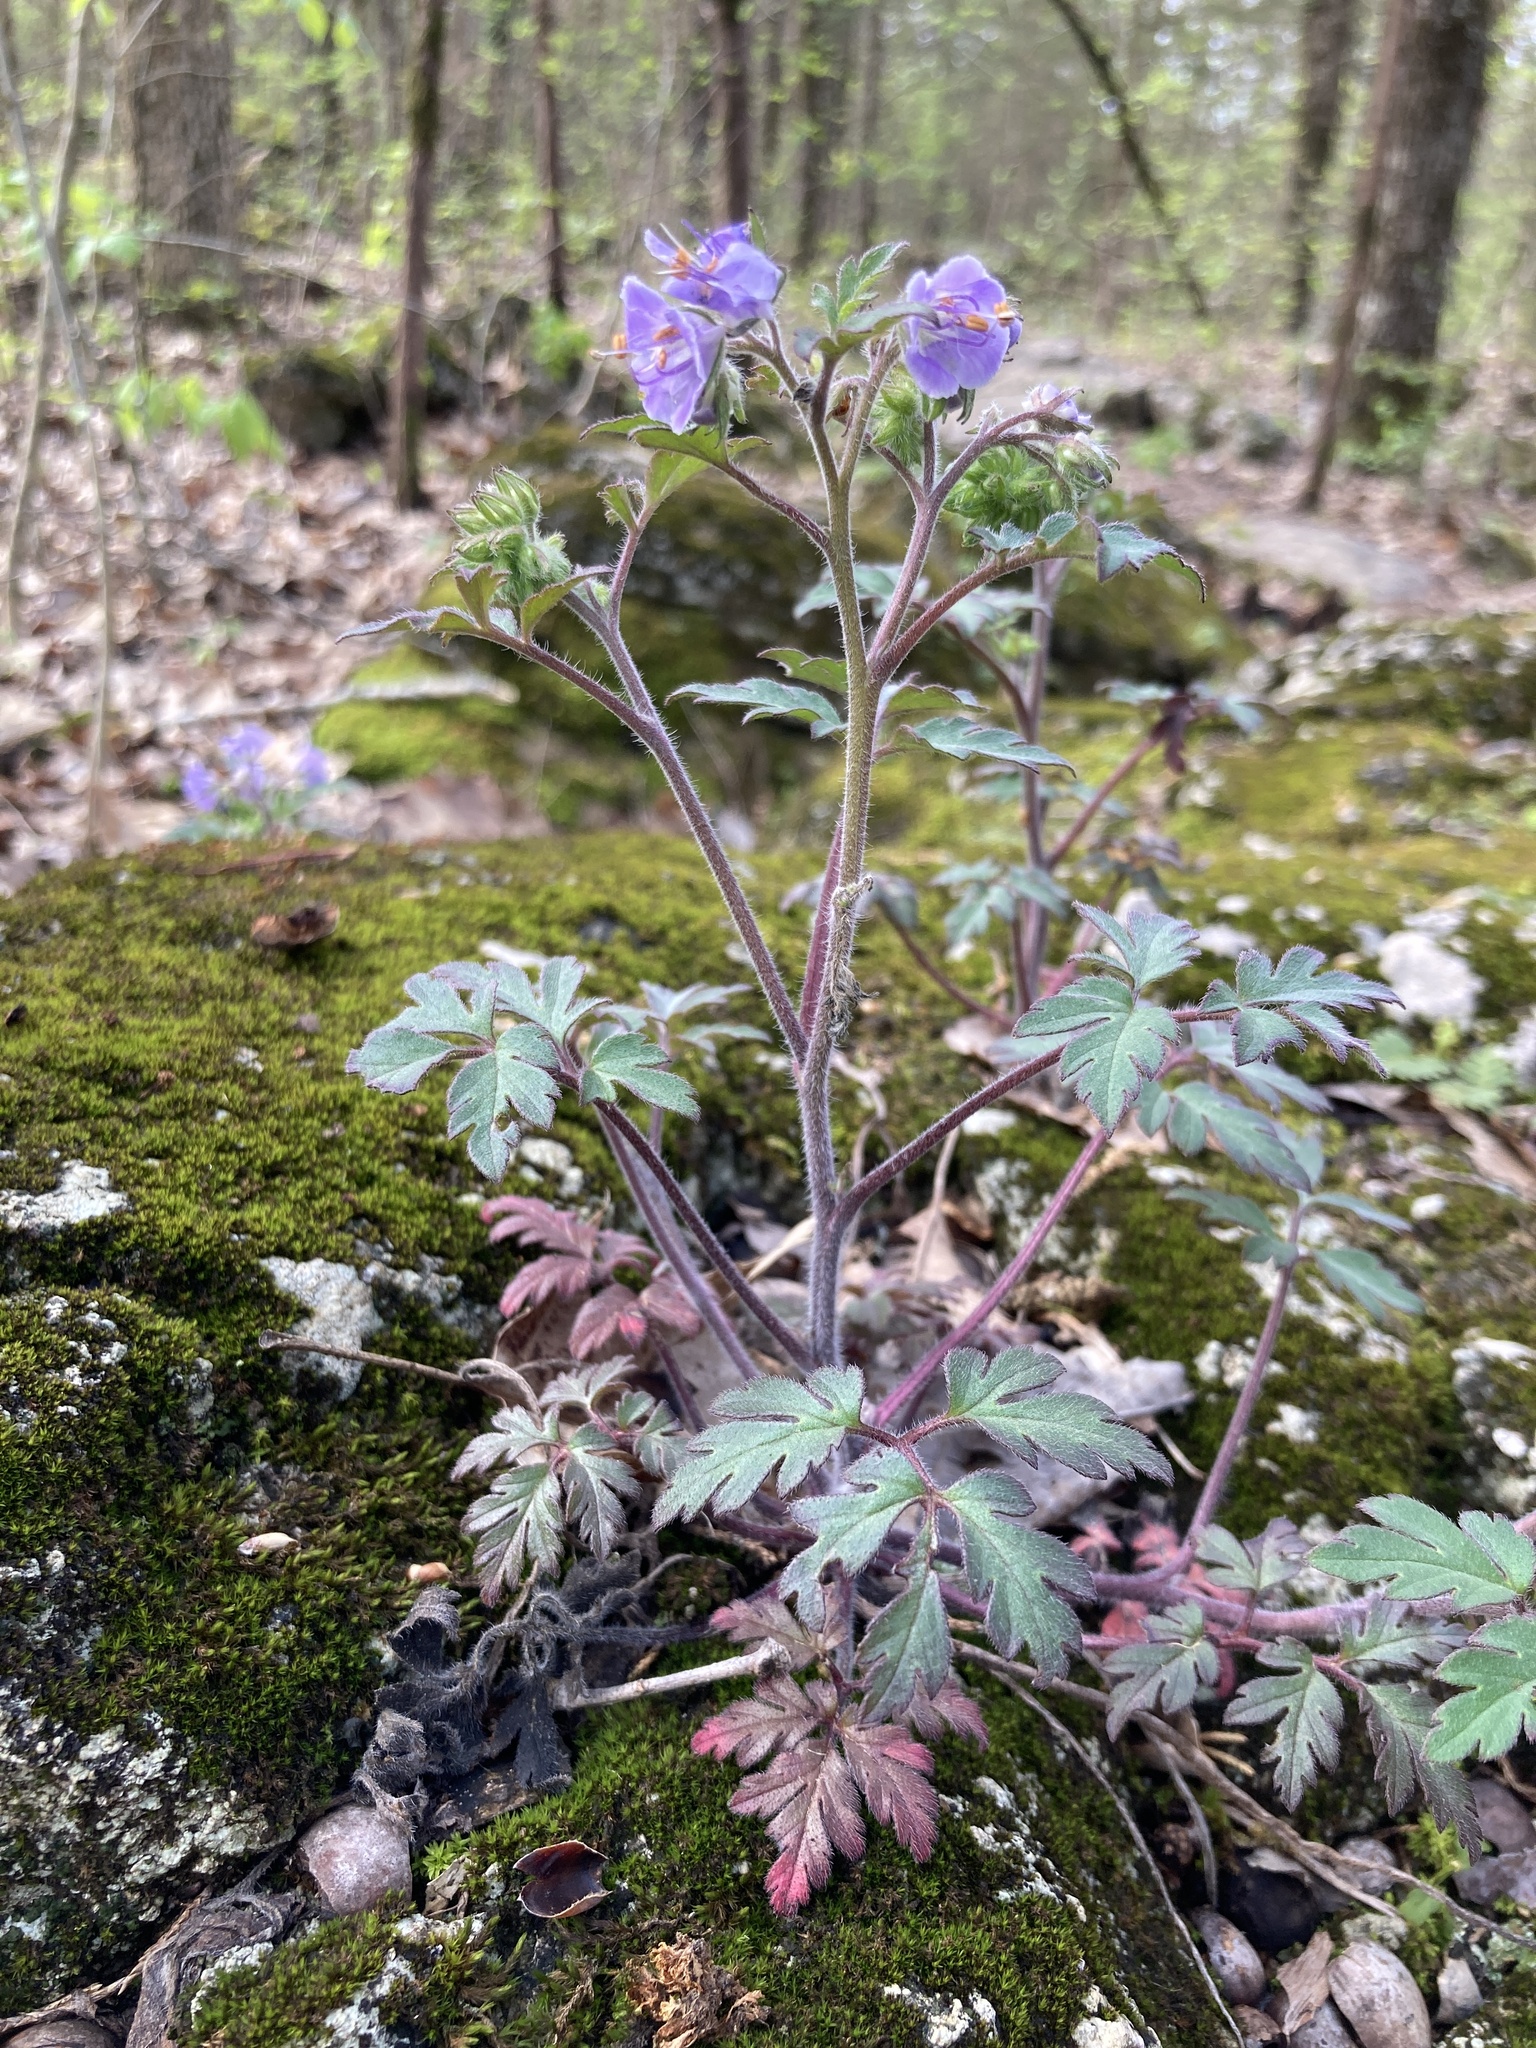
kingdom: Plantae
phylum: Tracheophyta
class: Magnoliopsida
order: Boraginales
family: Hydrophyllaceae
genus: Phacelia
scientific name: Phacelia bipinnatifida
